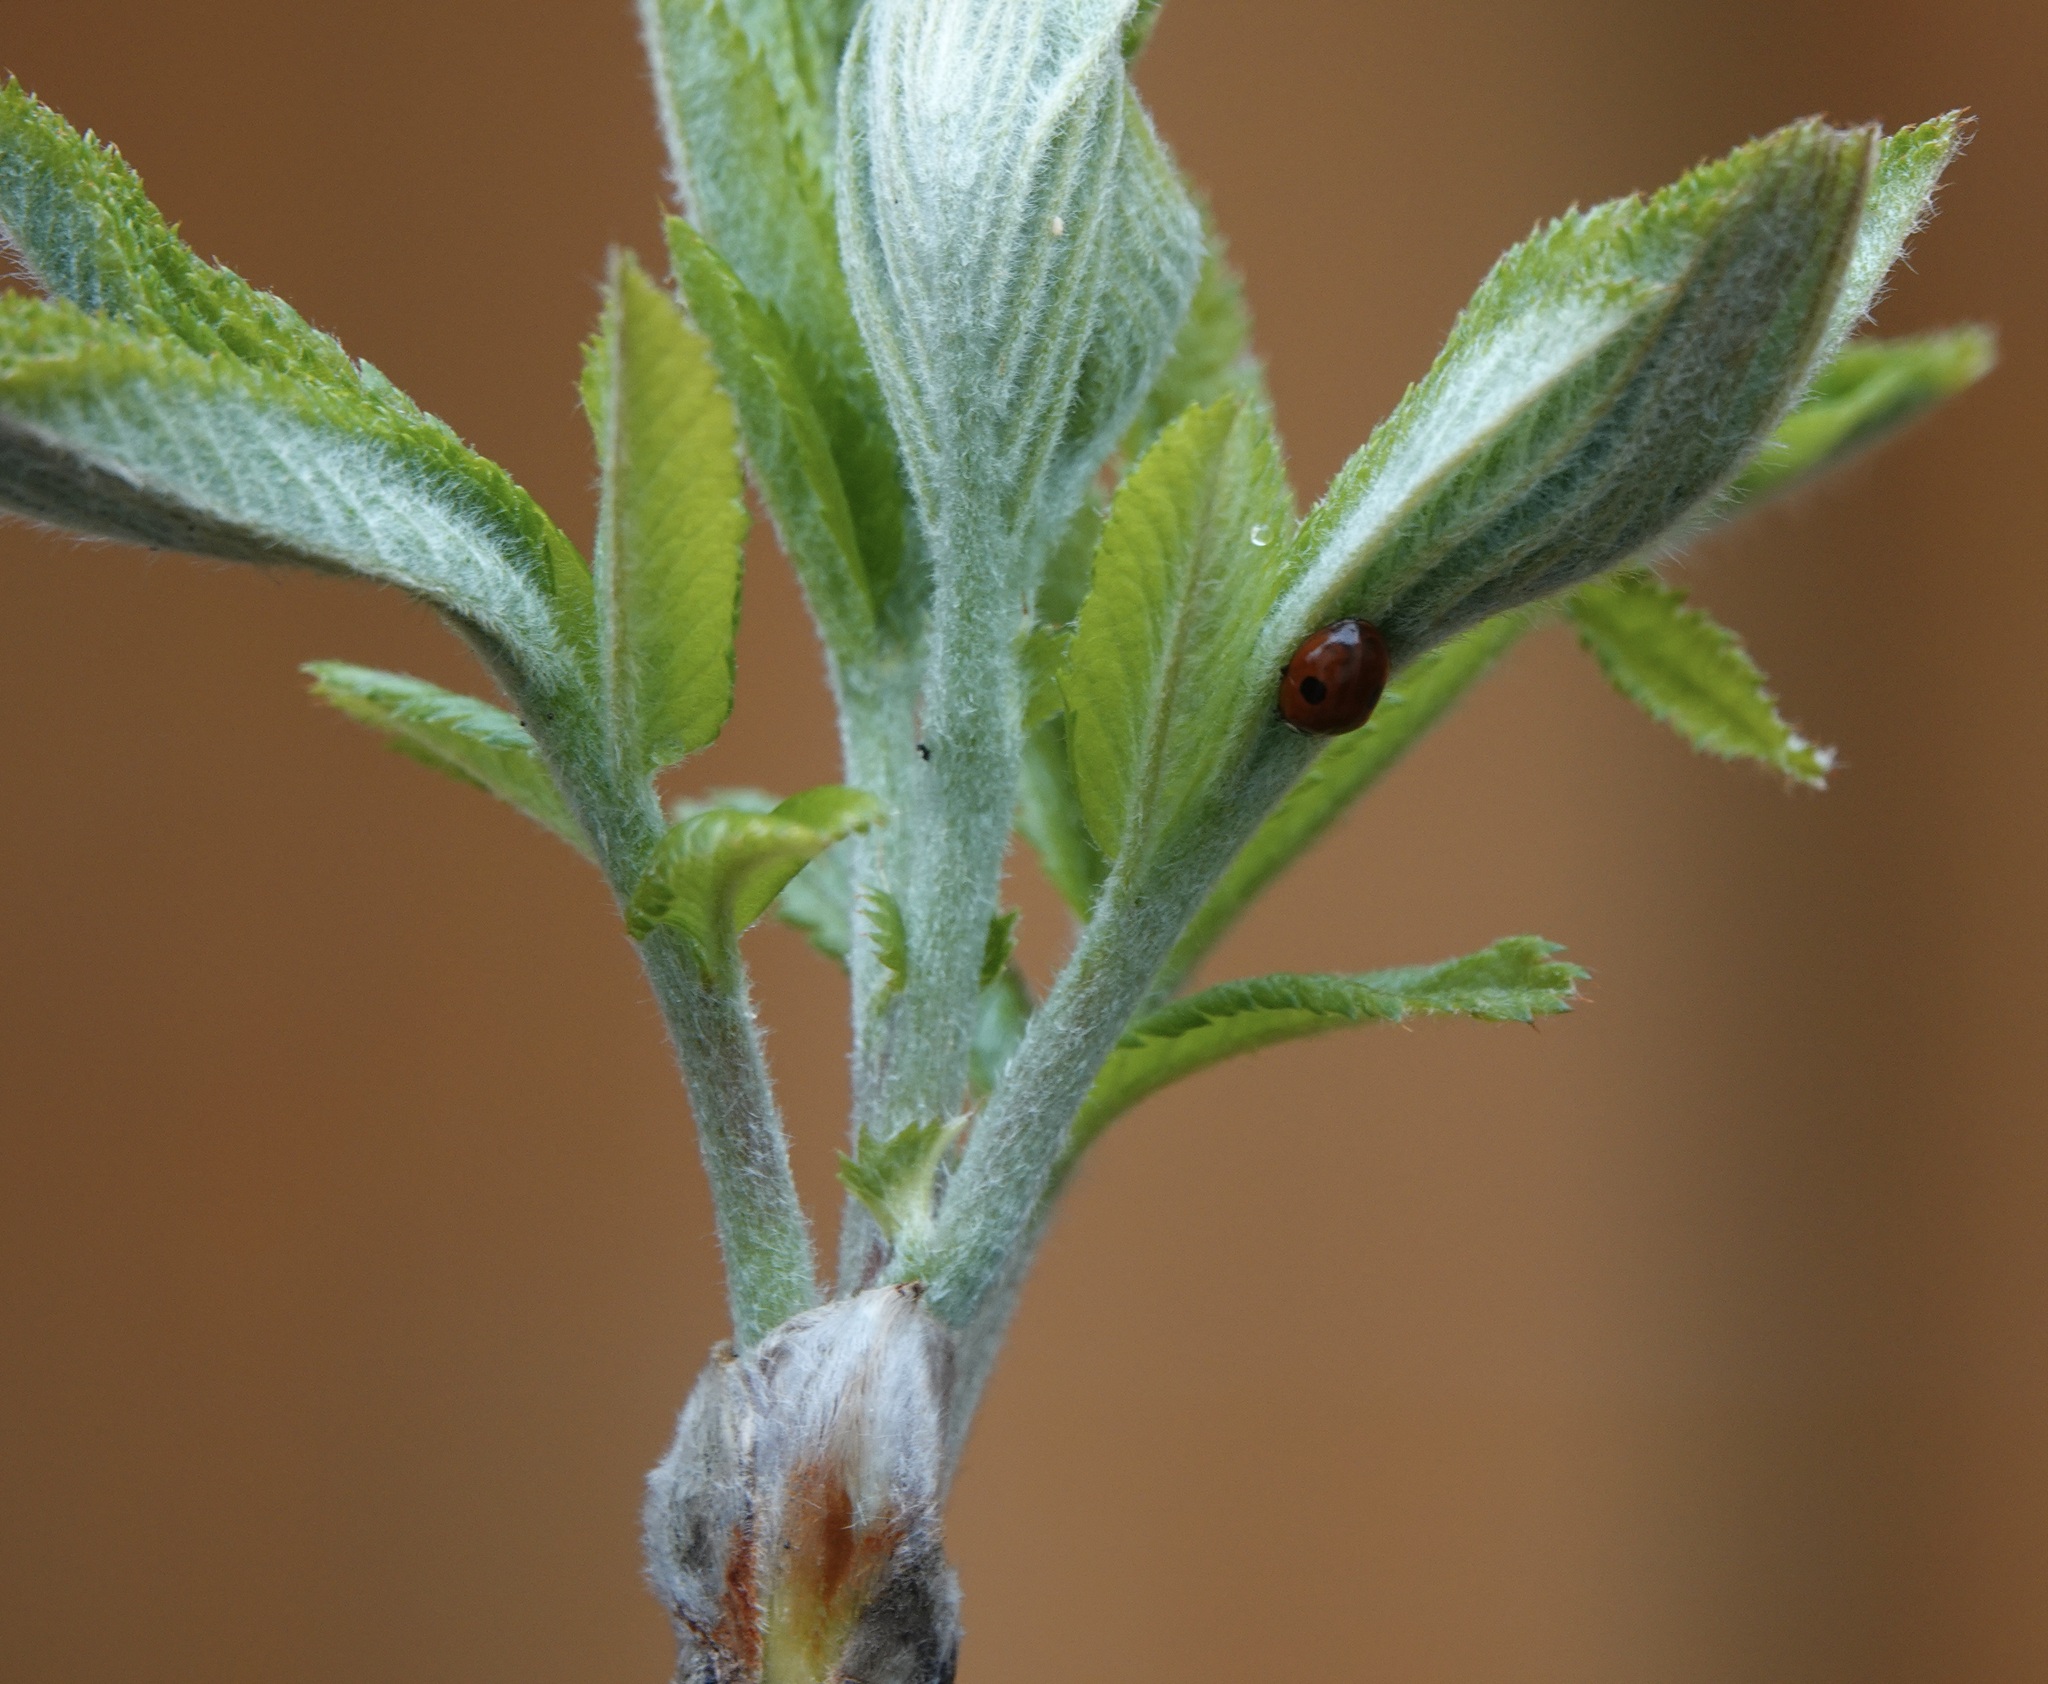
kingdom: Animalia
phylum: Arthropoda
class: Insecta
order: Coleoptera
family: Coccinellidae
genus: Adalia
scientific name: Adalia bipunctata
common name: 2-spot ladybird
